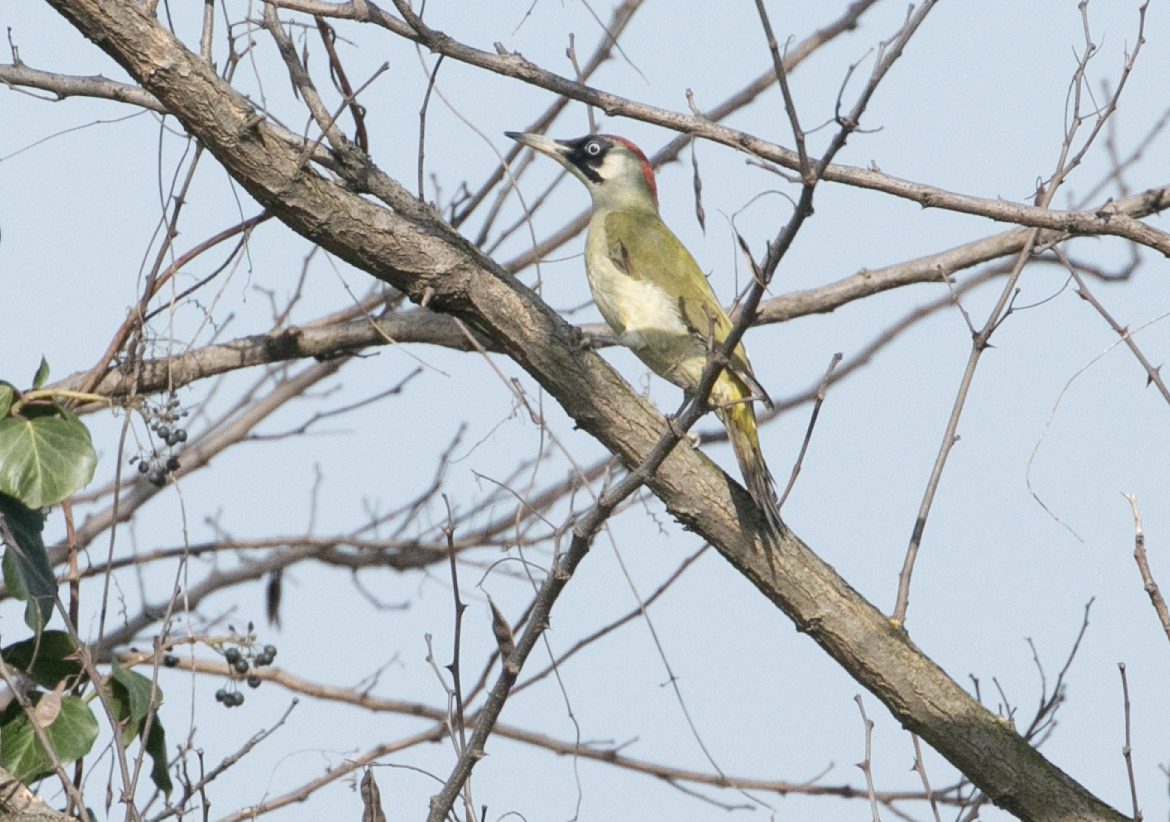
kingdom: Animalia
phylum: Chordata
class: Aves
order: Piciformes
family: Picidae
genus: Picus
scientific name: Picus viridis
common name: European green woodpecker
